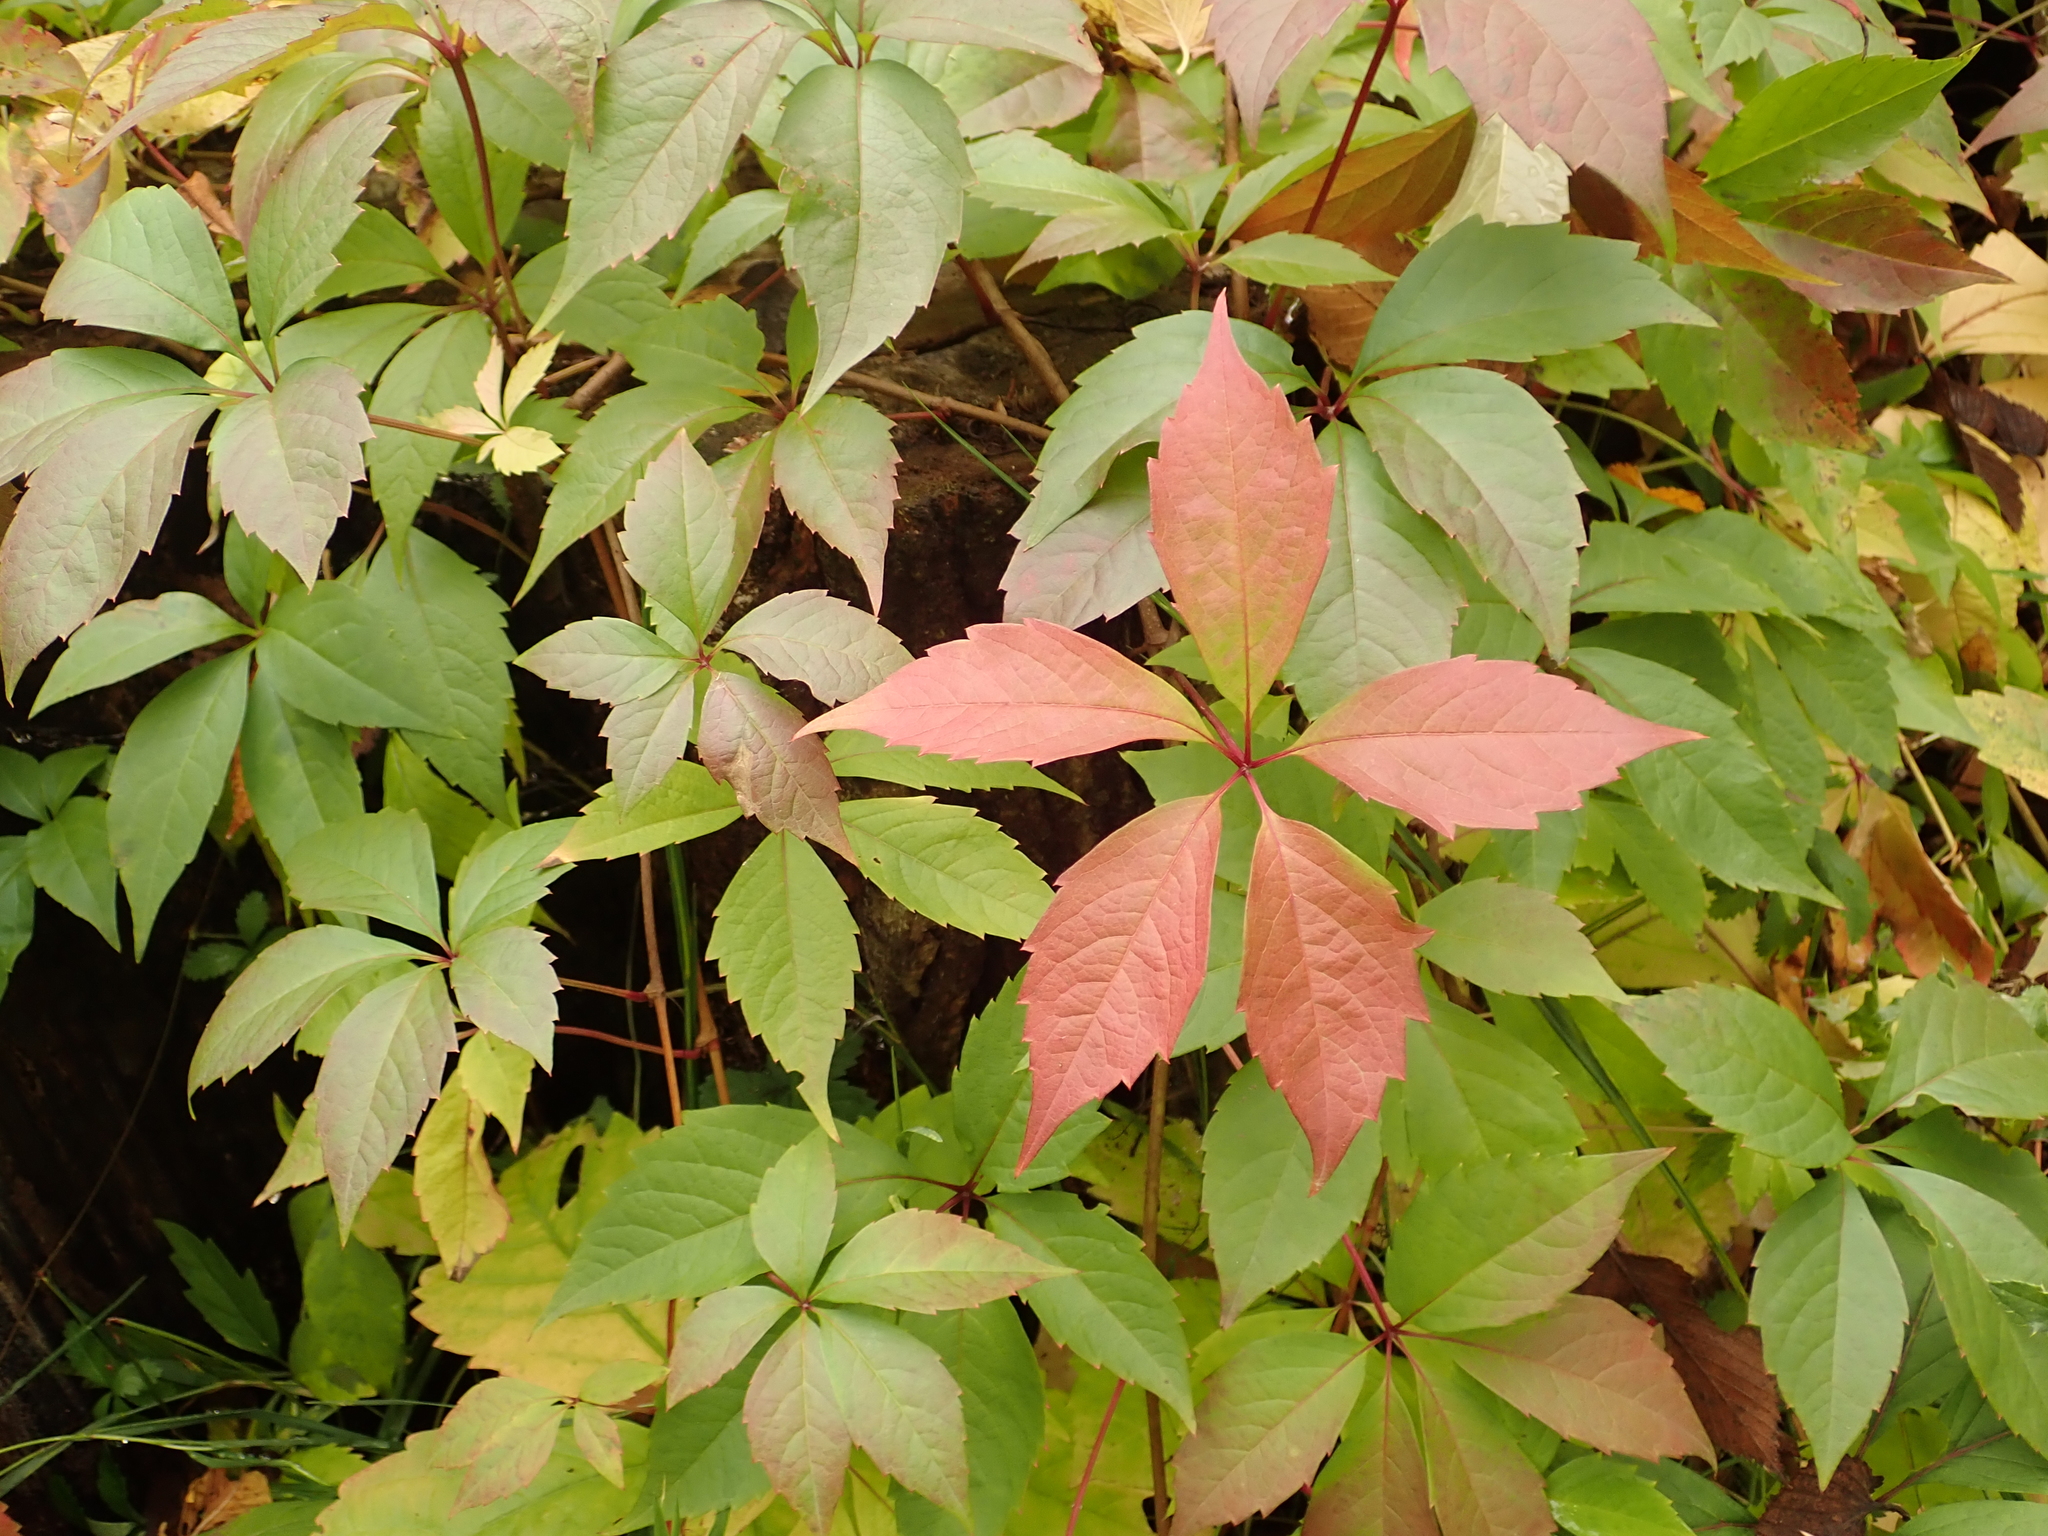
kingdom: Plantae
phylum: Tracheophyta
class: Magnoliopsida
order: Vitales
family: Vitaceae
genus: Parthenocissus
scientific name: Parthenocissus quinquefolia
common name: Virginia-creeper
